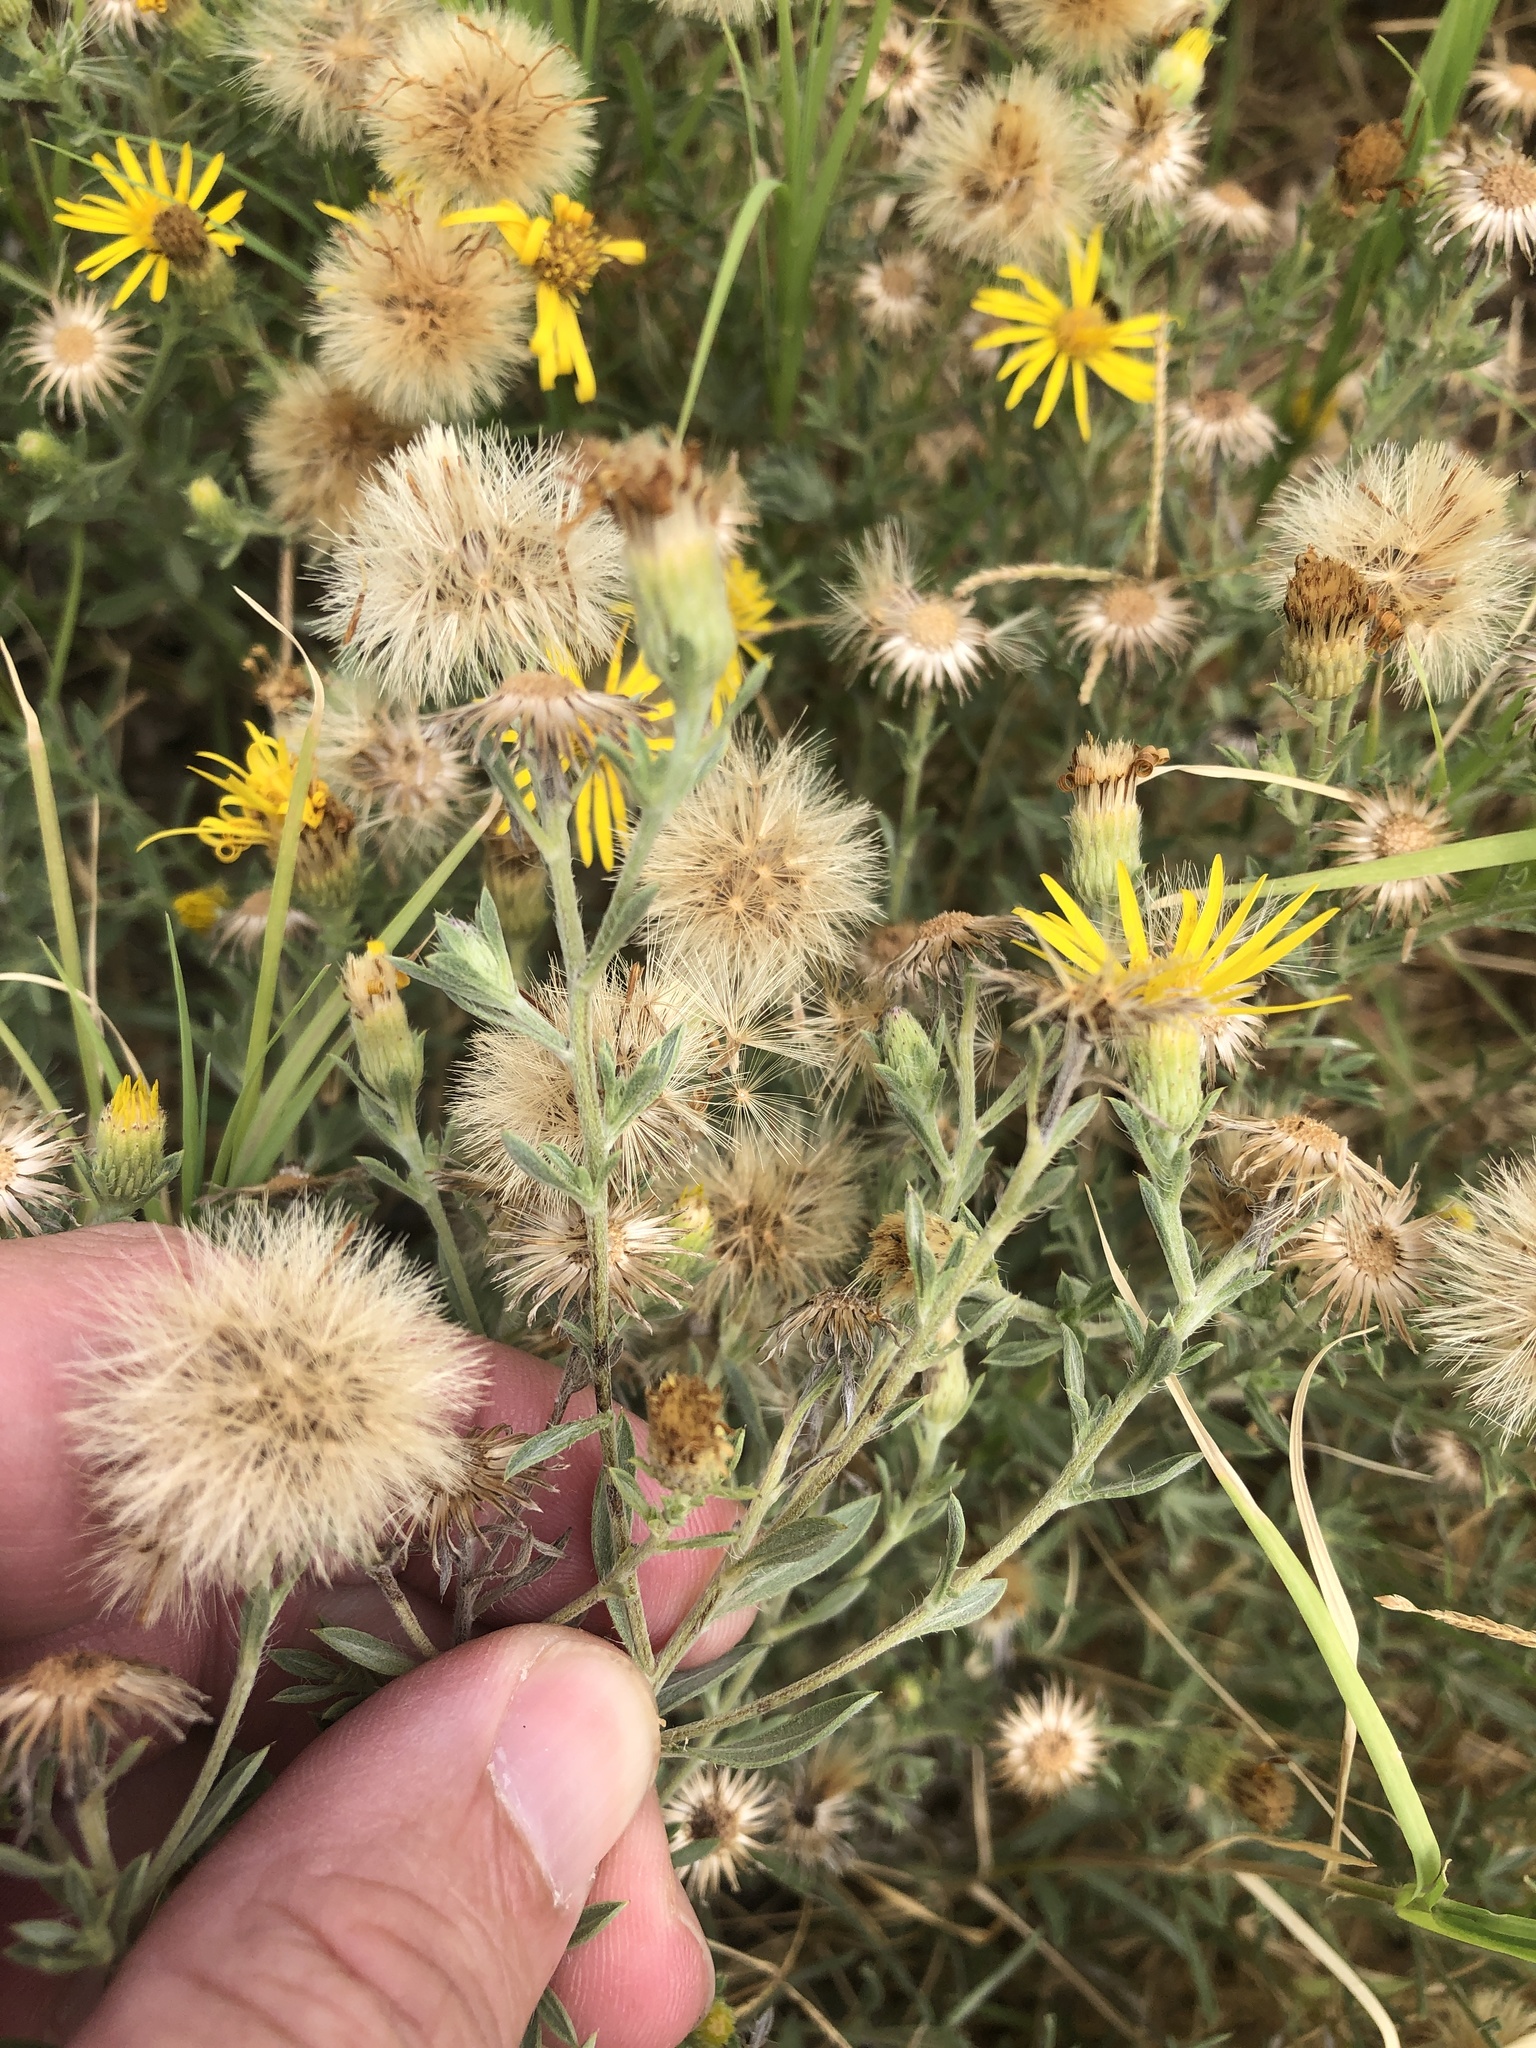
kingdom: Plantae
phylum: Tracheophyta
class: Magnoliopsida
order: Asterales
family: Asteraceae
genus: Heterotheca
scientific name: Heterotheca canescens
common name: Hoary golden-aster
